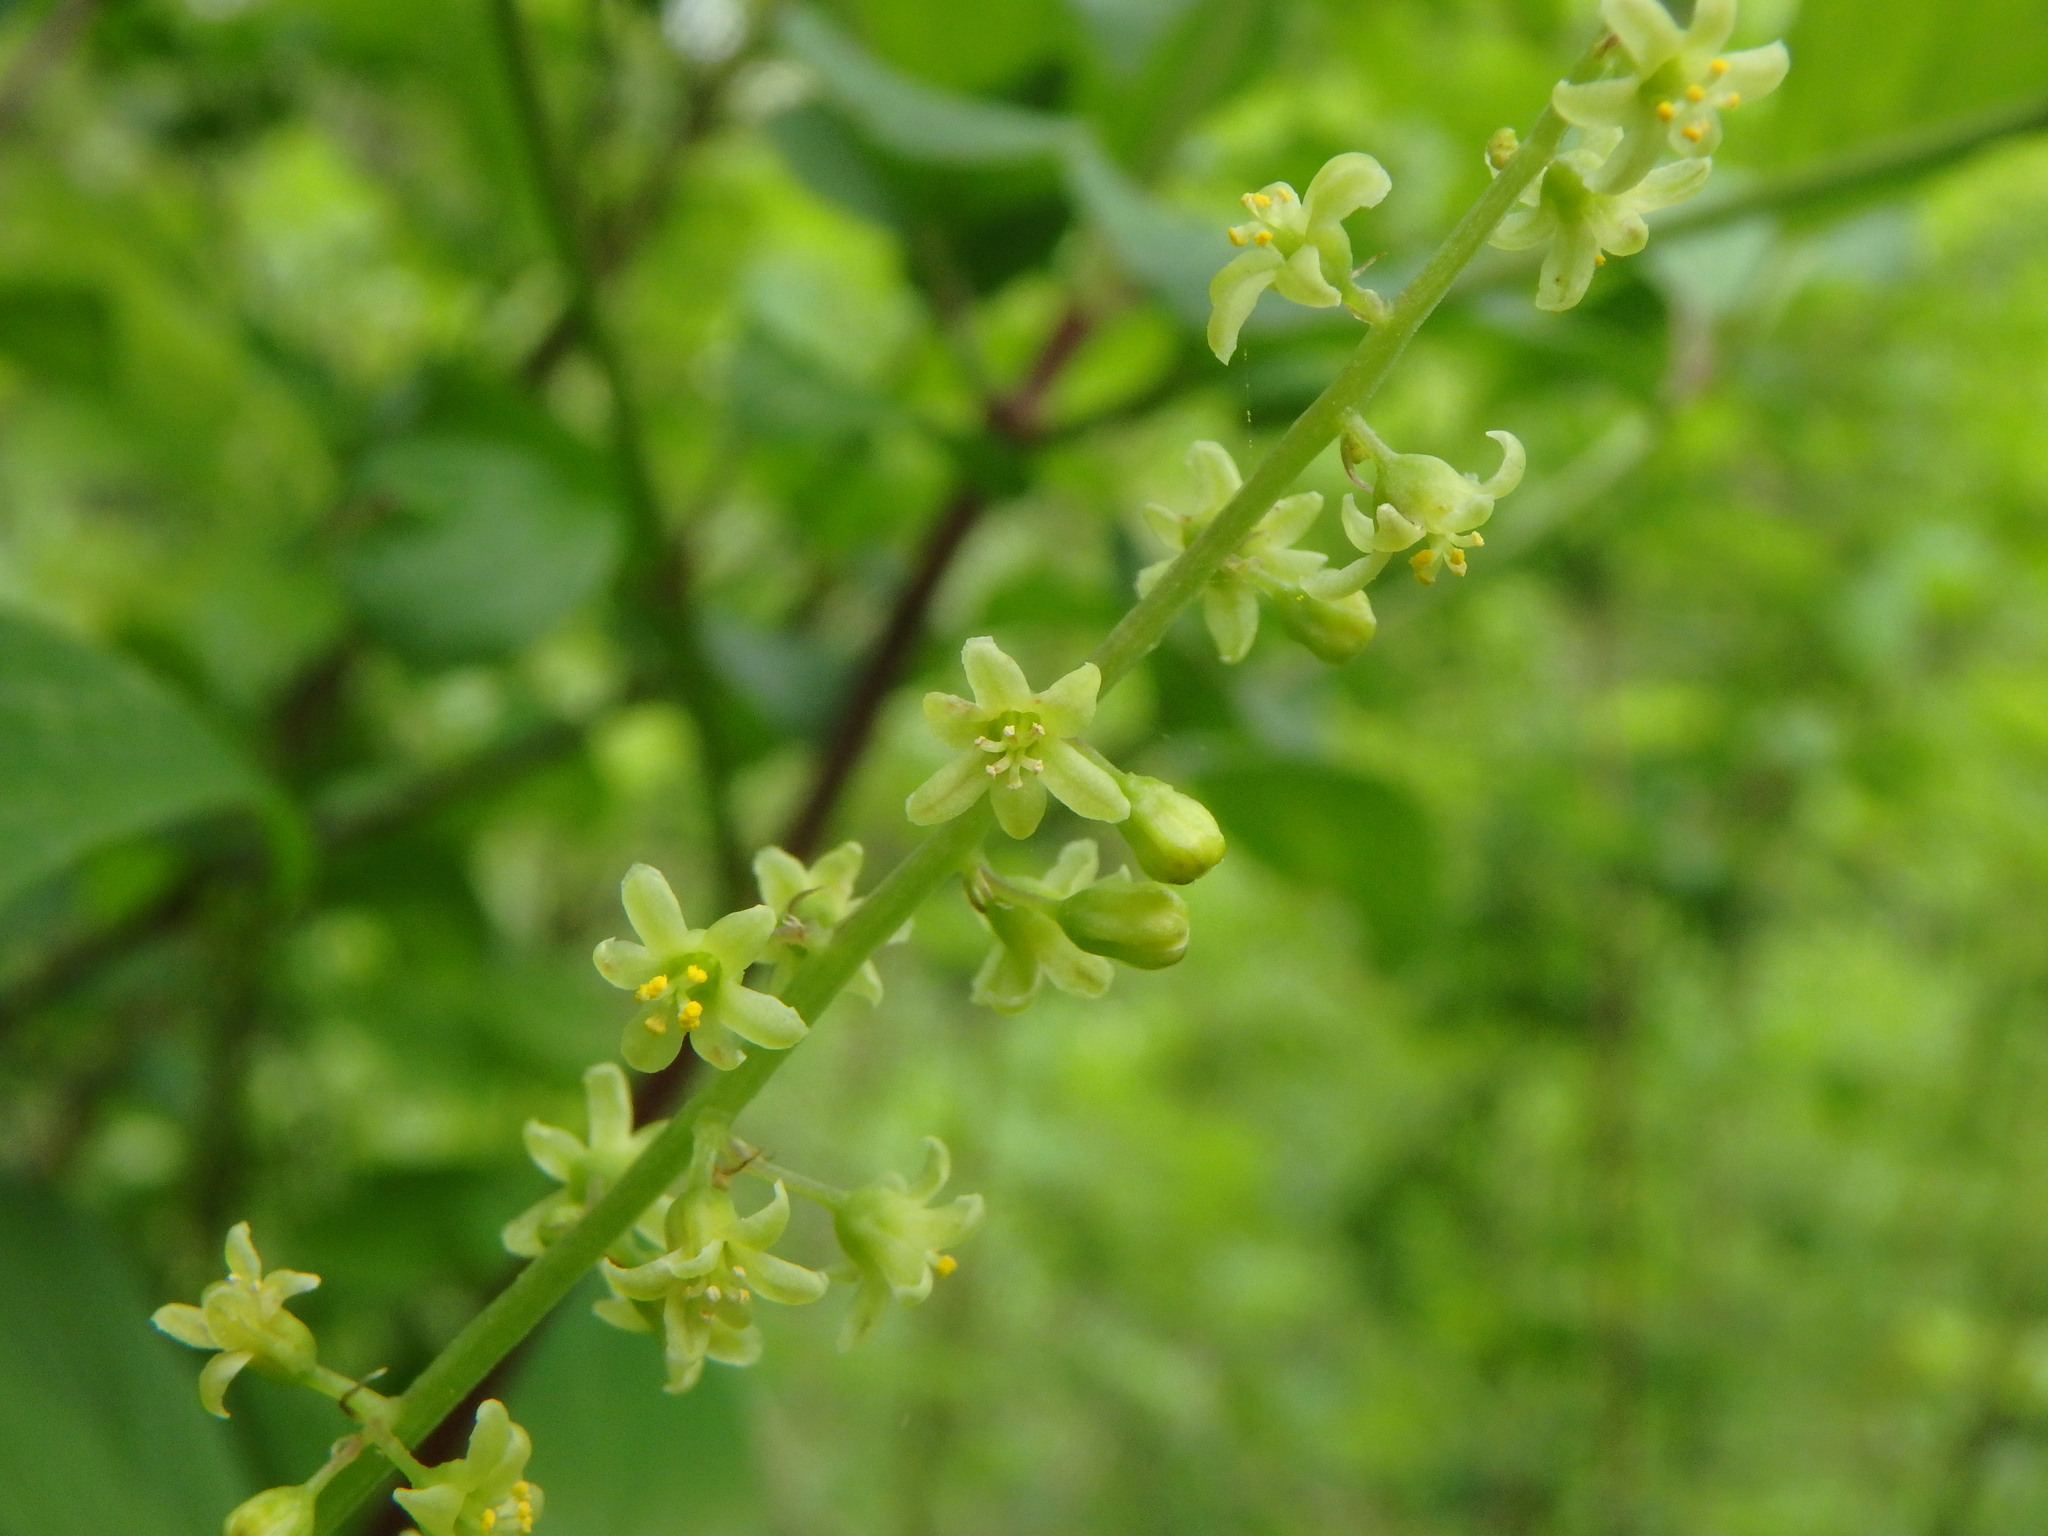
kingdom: Plantae
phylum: Tracheophyta
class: Liliopsida
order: Dioscoreales
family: Dioscoreaceae
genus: Dioscorea
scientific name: Dioscorea communis
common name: Black-bindweed
